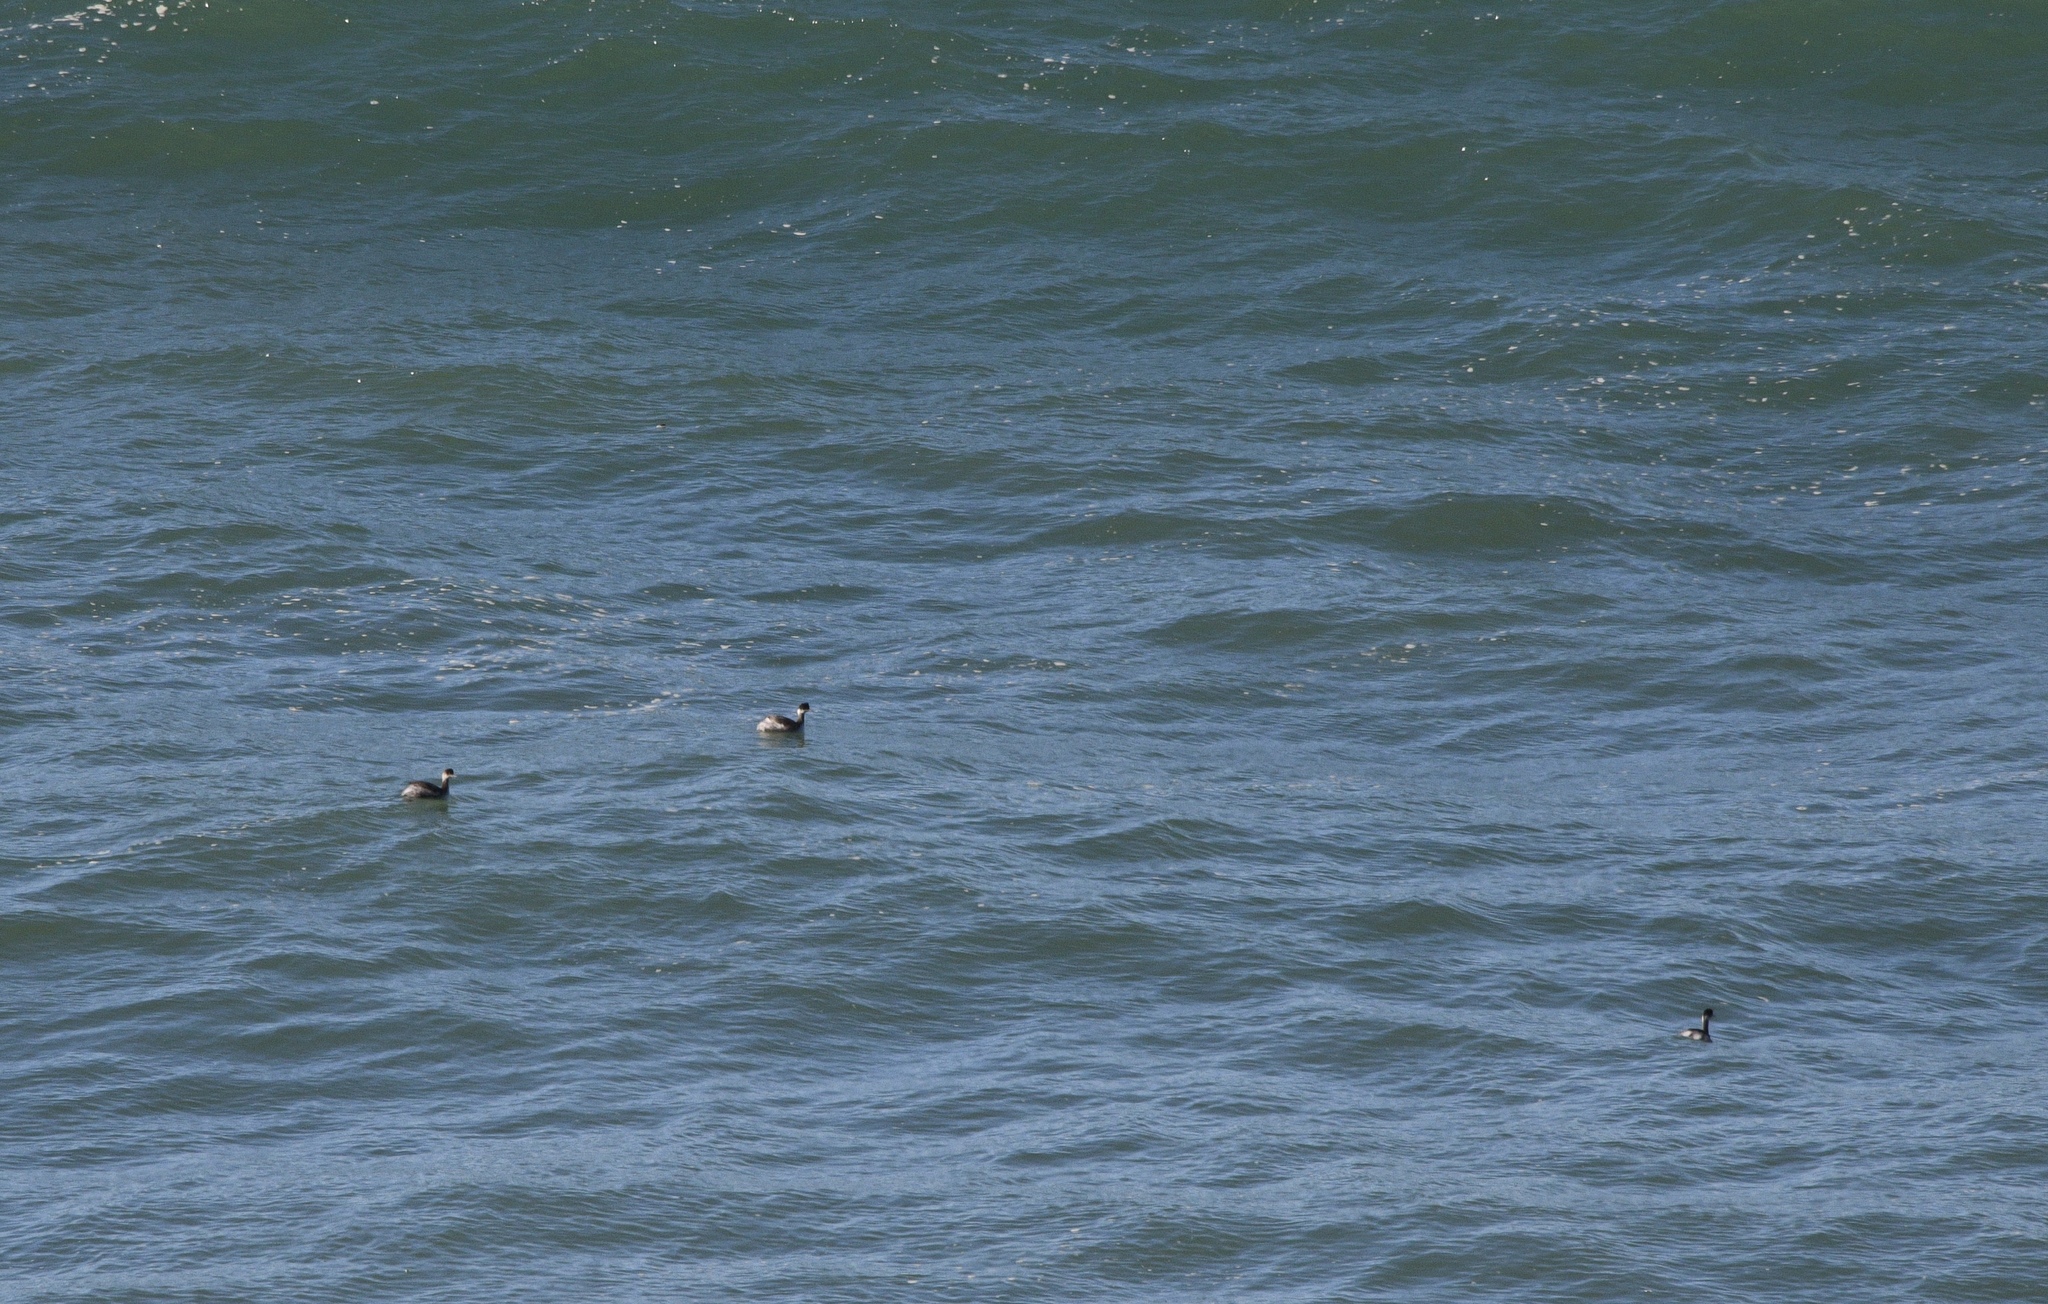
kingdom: Animalia
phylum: Chordata
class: Aves
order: Podicipediformes
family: Podicipedidae
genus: Podiceps
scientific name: Podiceps nigricollis
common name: Black-necked grebe
